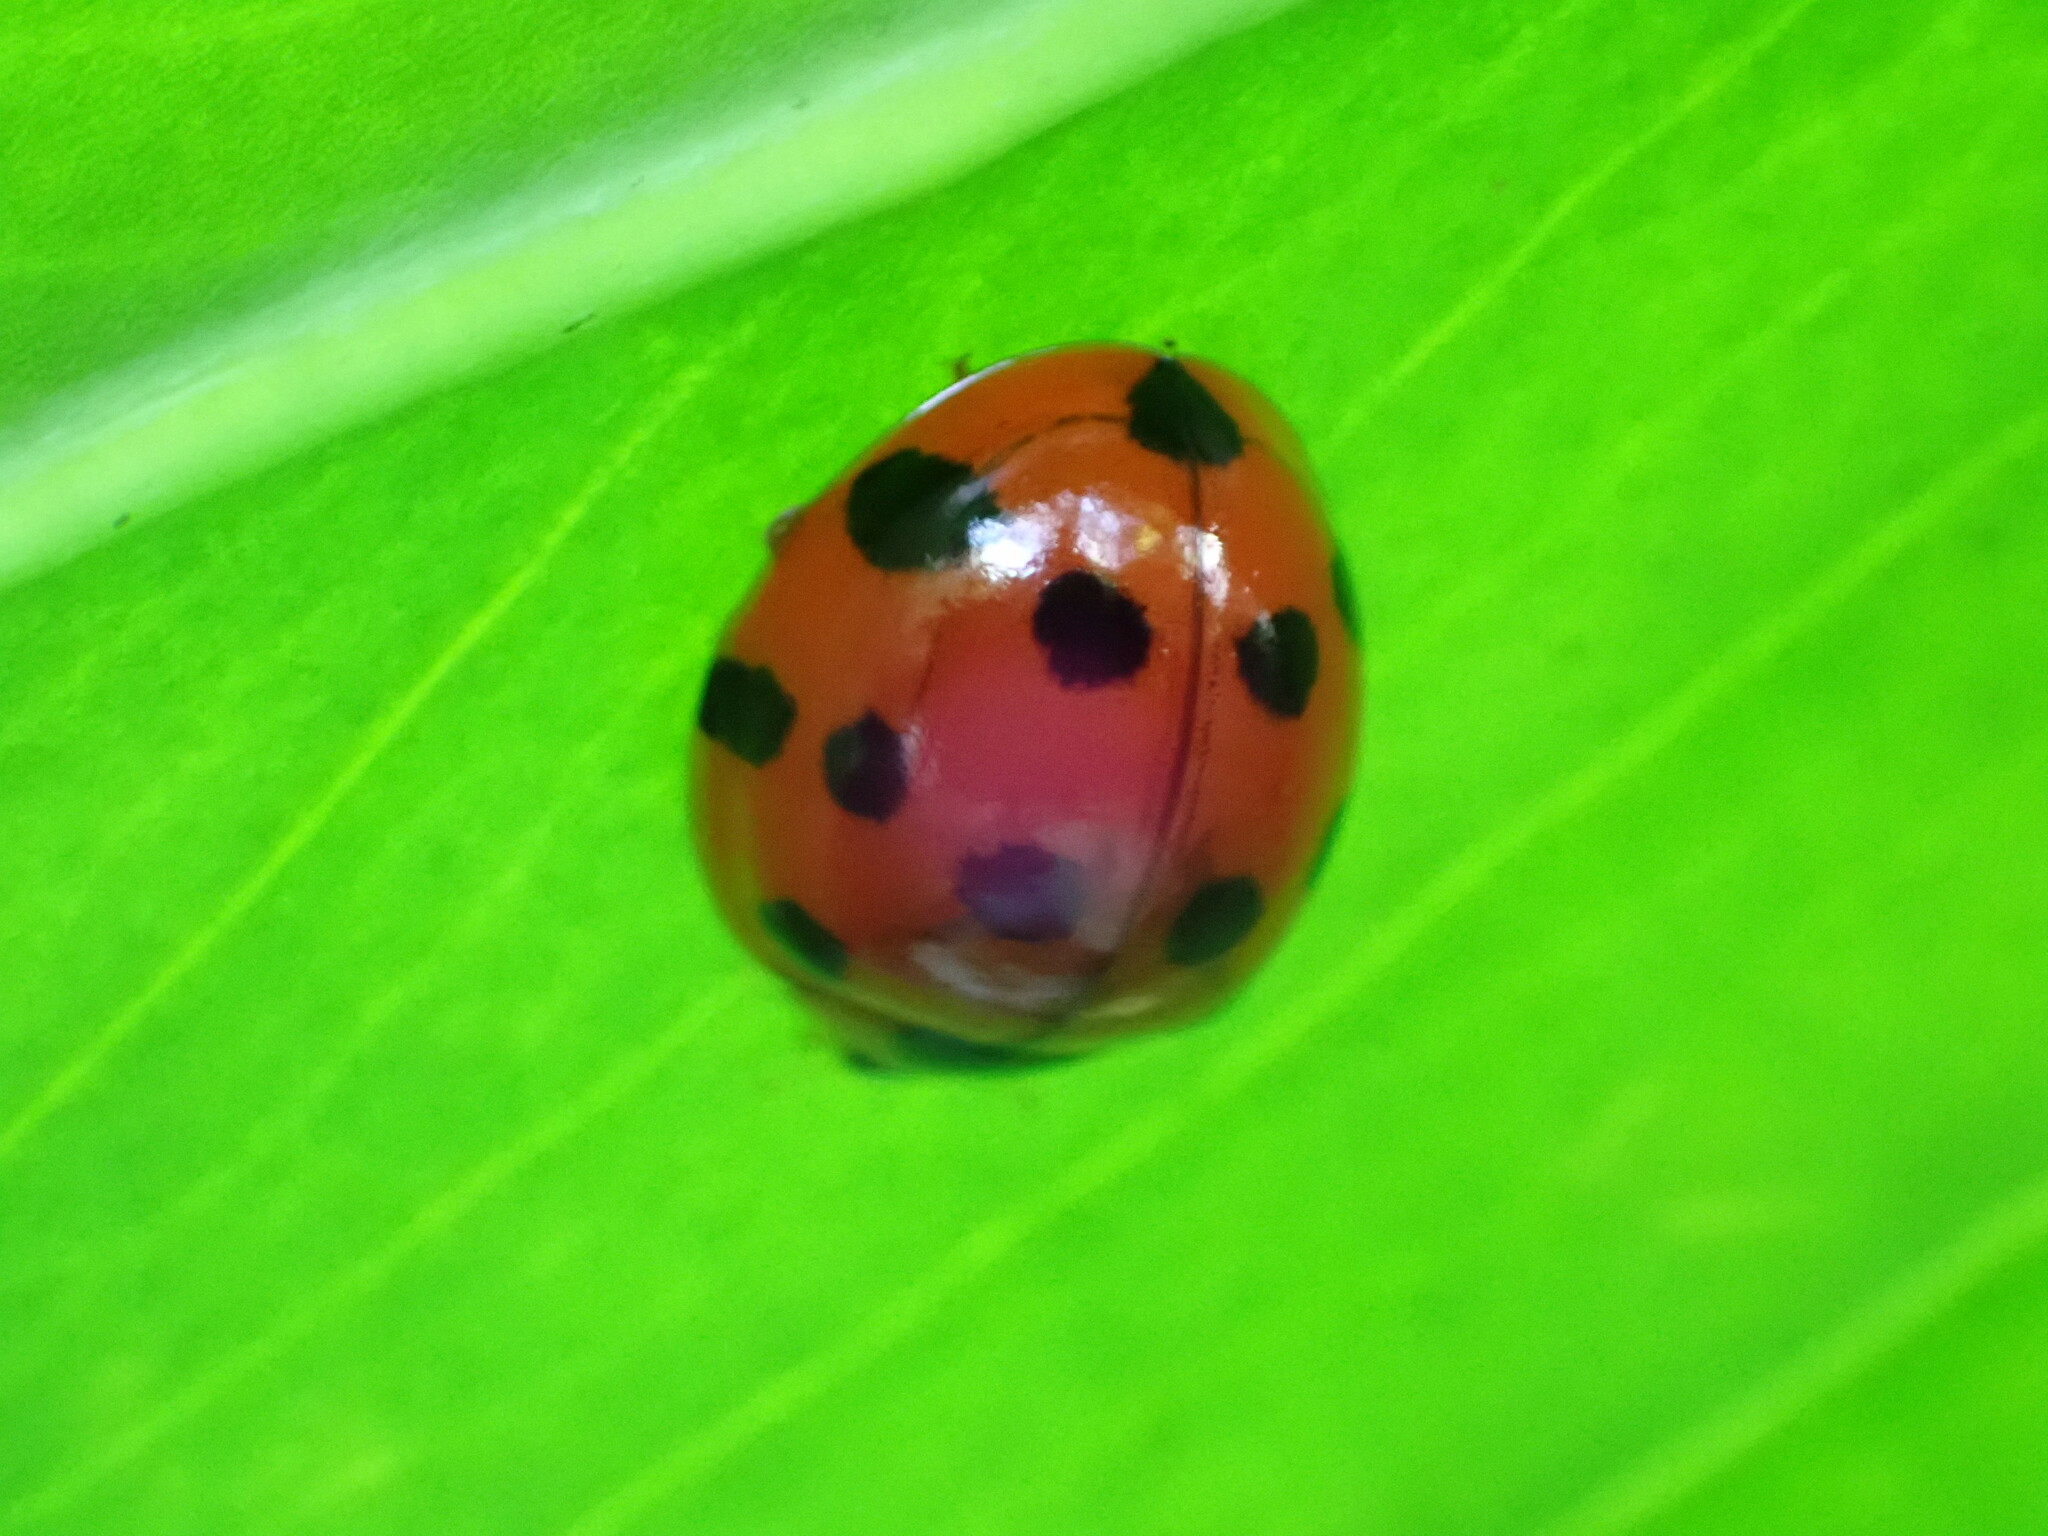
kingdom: Animalia
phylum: Arthropoda
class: Insecta
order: Coleoptera
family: Coccinellidae
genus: Harmonia
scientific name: Harmonia dimidiata
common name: Ladybird beetle
